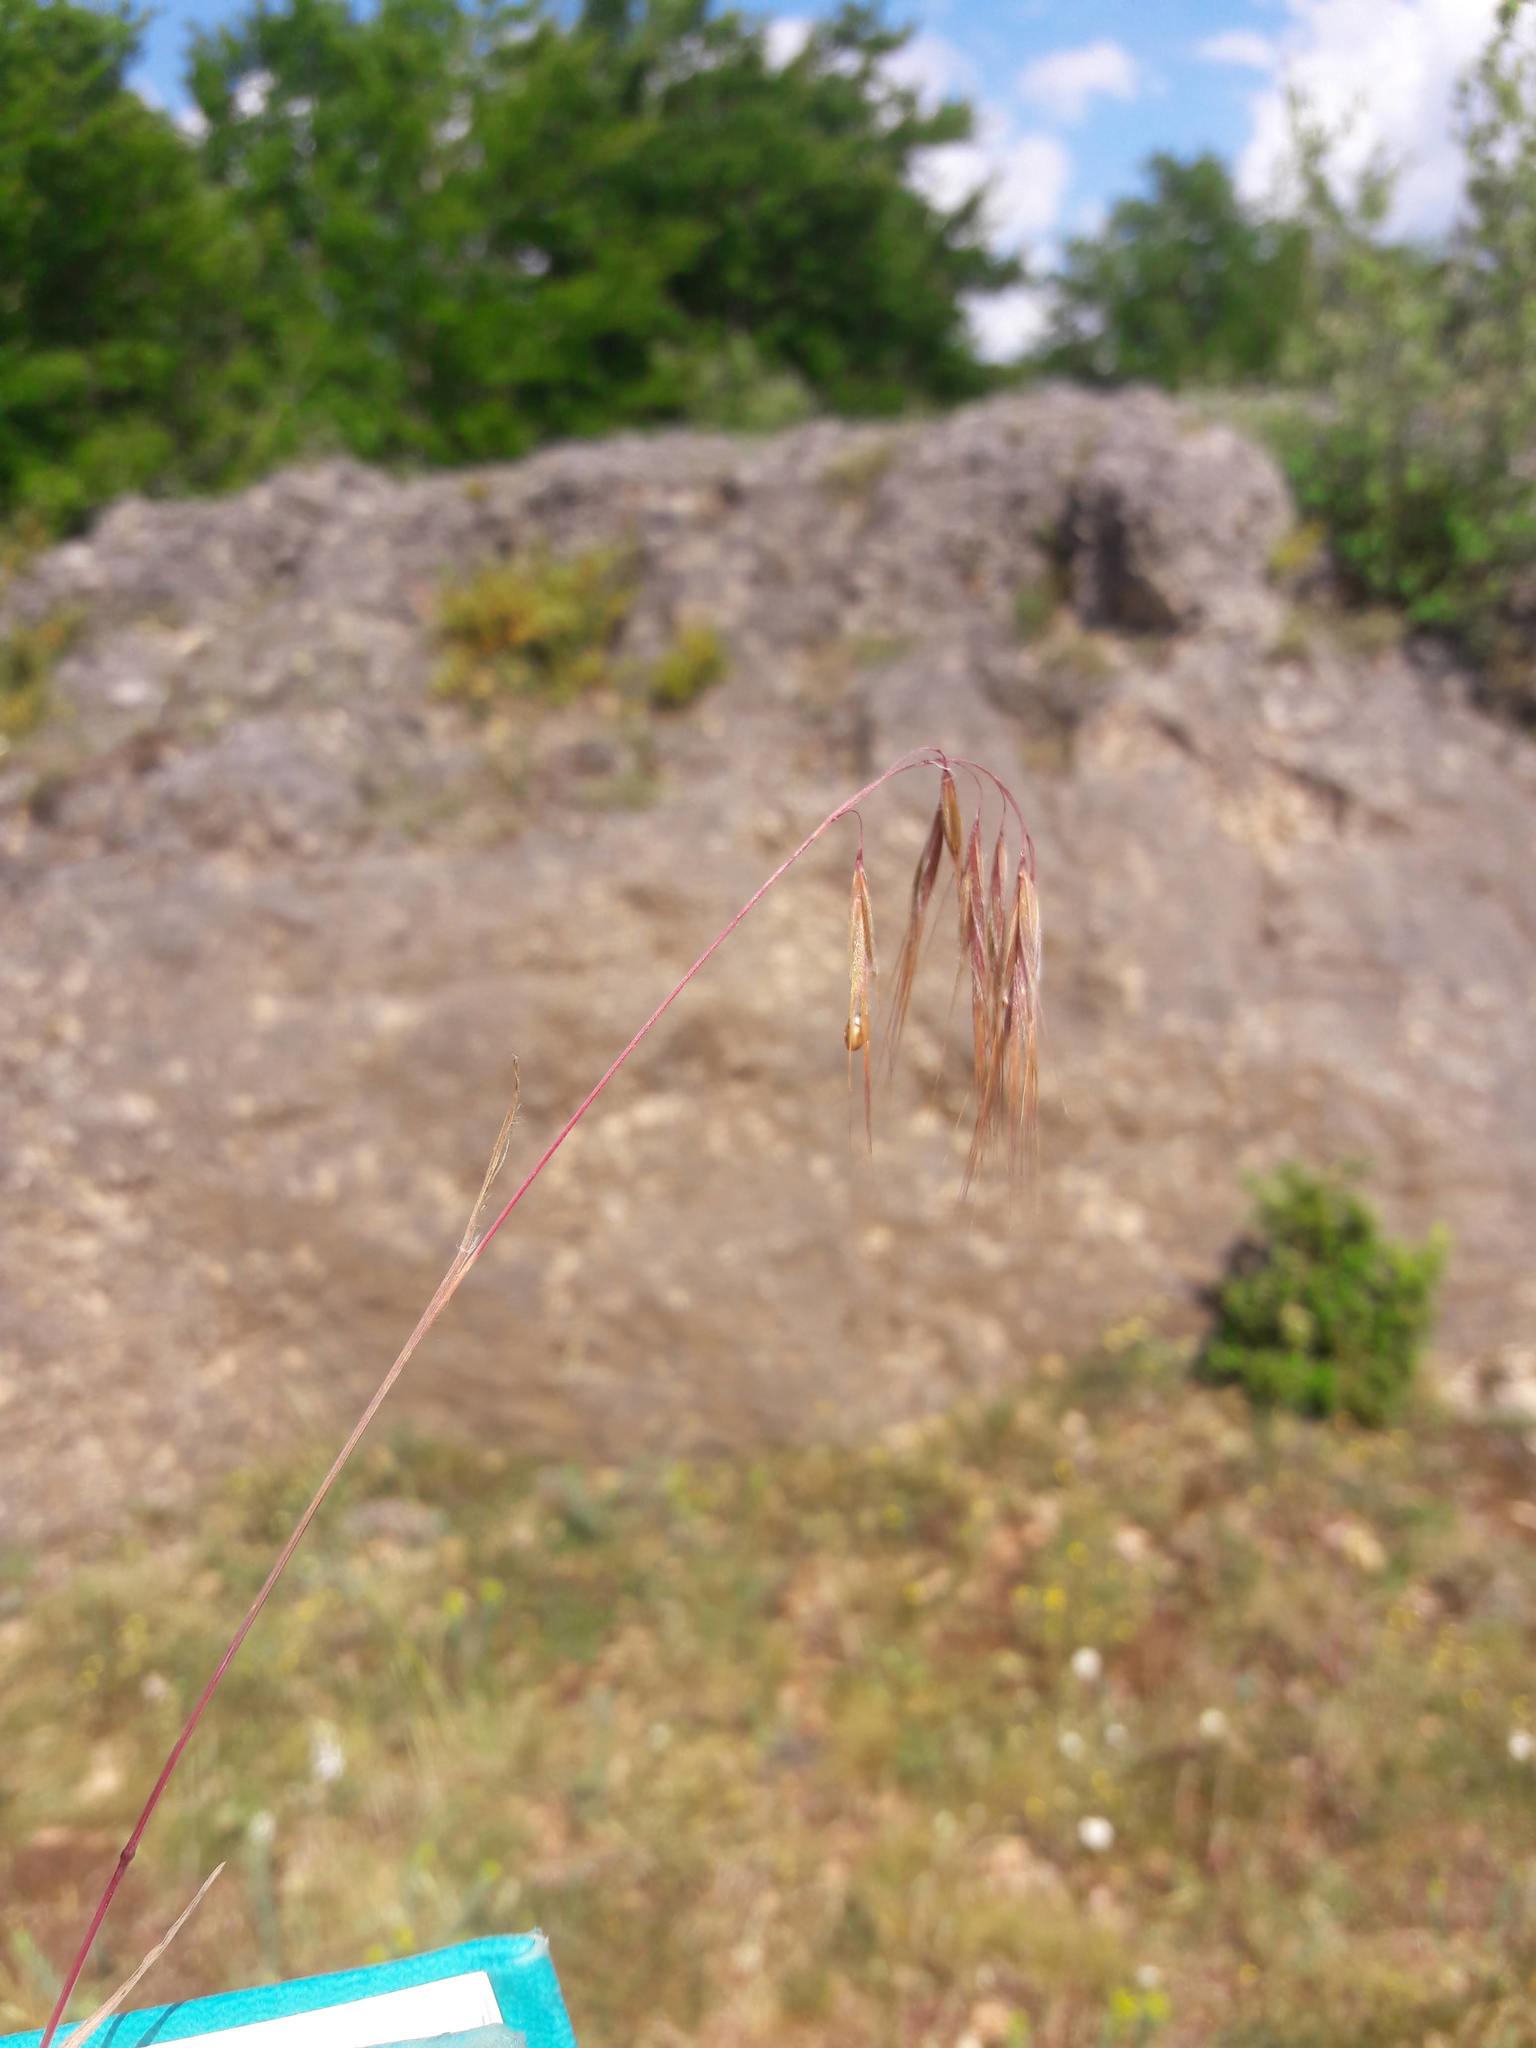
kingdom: Plantae
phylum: Tracheophyta
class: Liliopsida
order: Poales
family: Poaceae
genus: Bromus
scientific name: Bromus tectorum
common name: Cheatgrass
